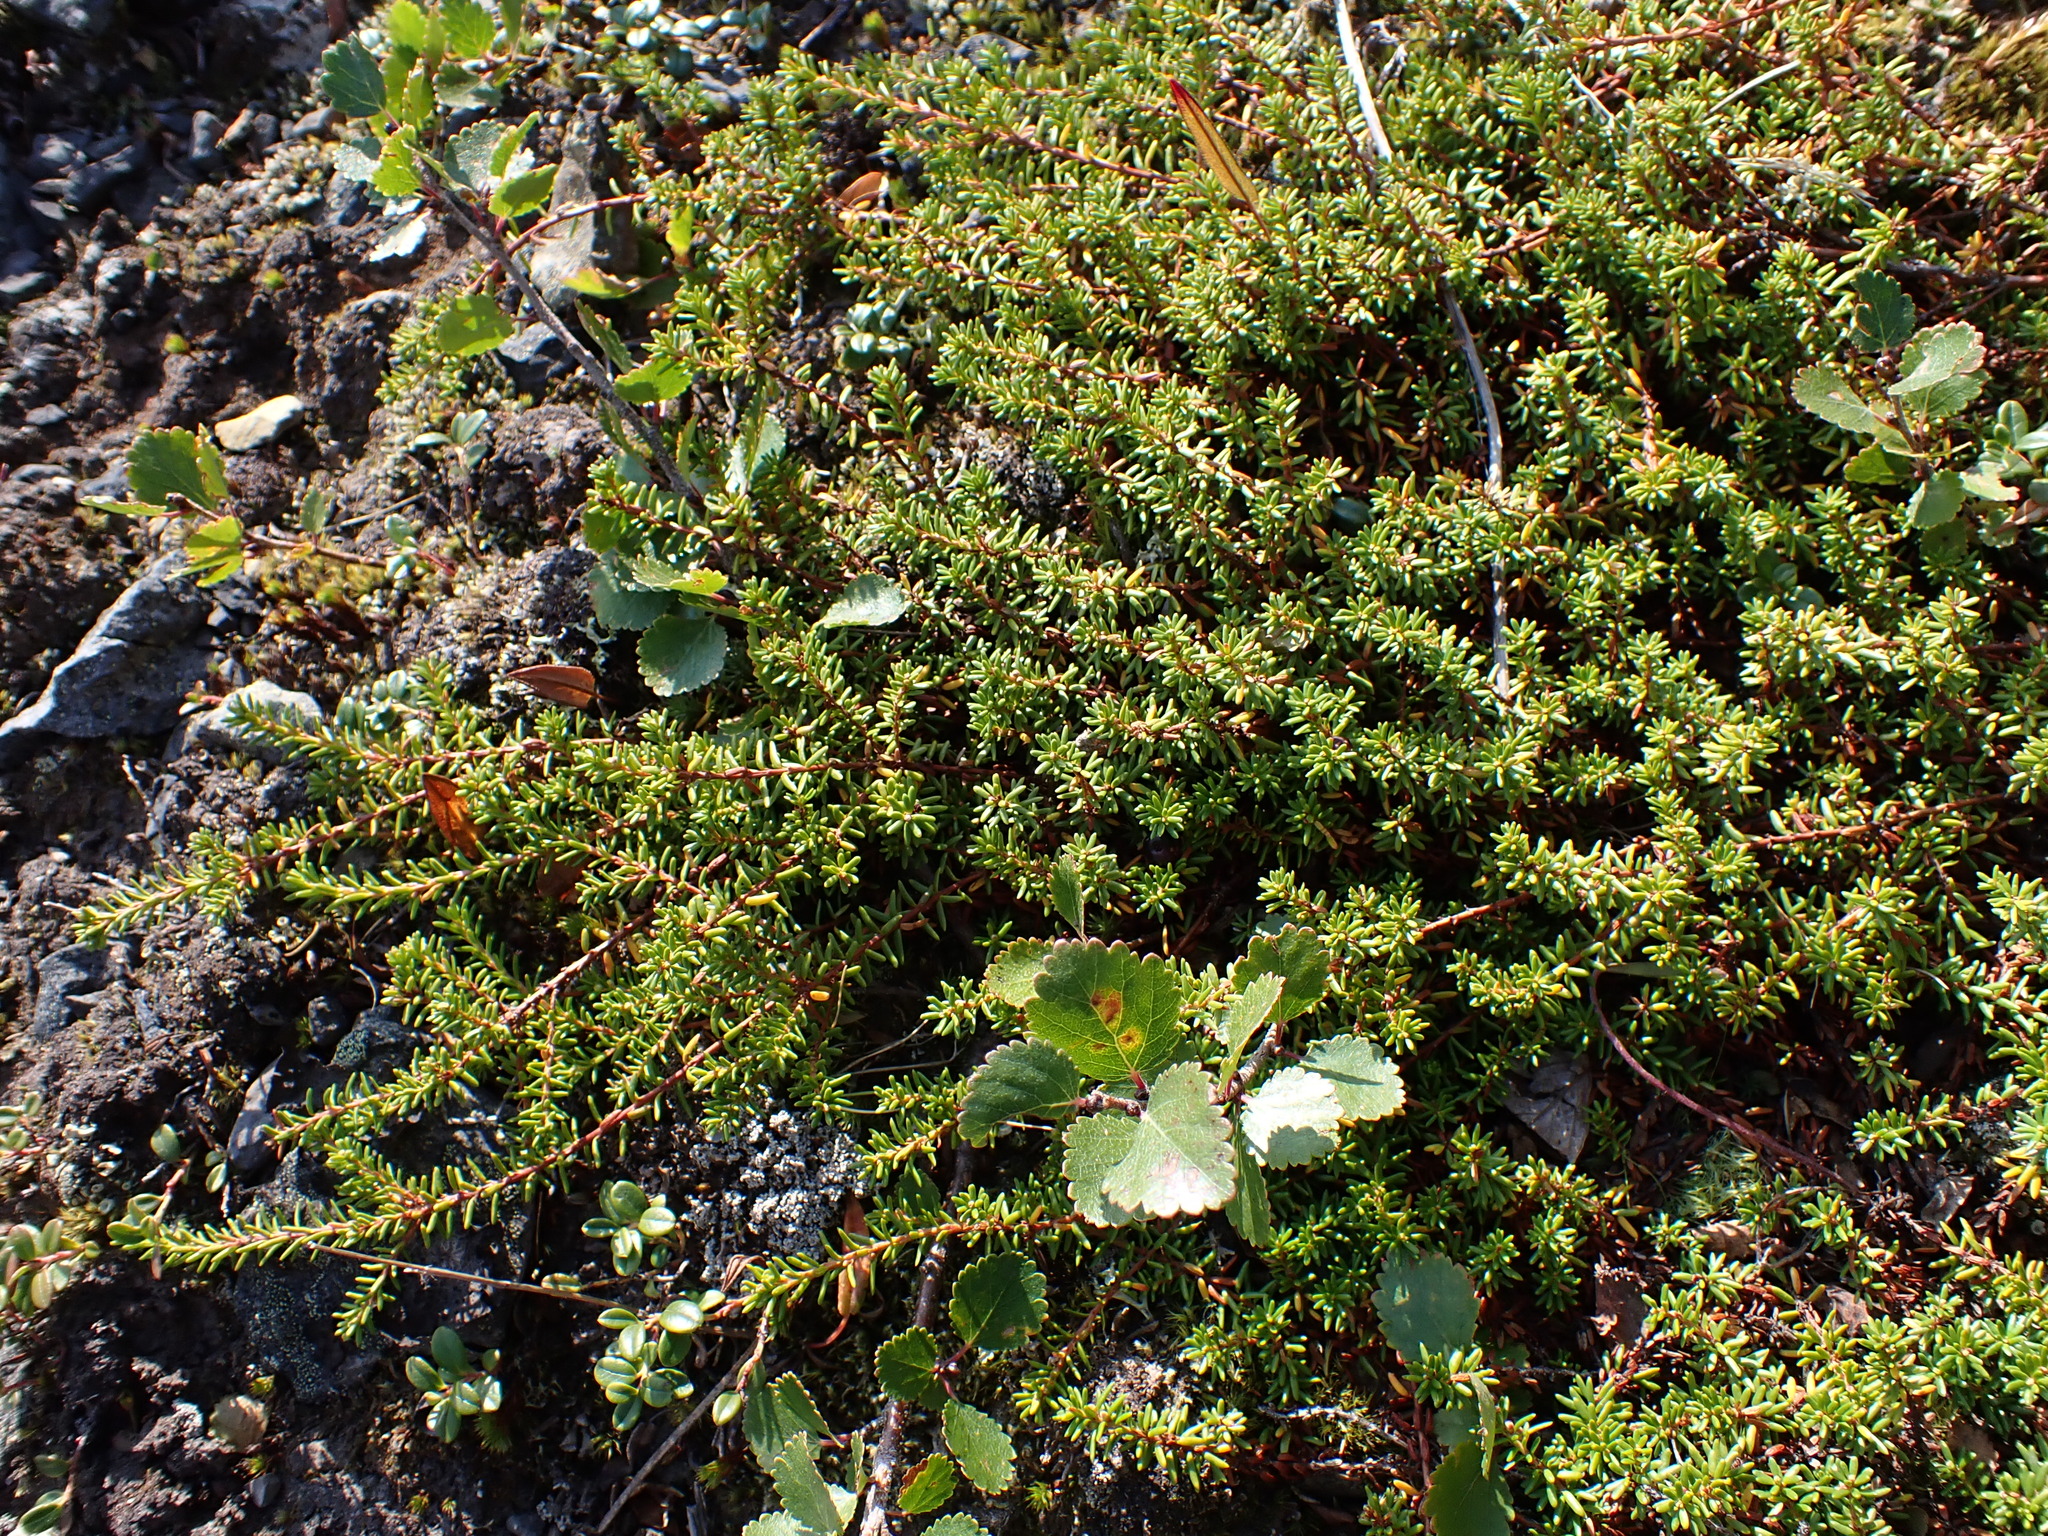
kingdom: Plantae
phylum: Tracheophyta
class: Magnoliopsida
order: Ericales
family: Ericaceae
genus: Empetrum
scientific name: Empetrum nigrum
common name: Black crowberry
